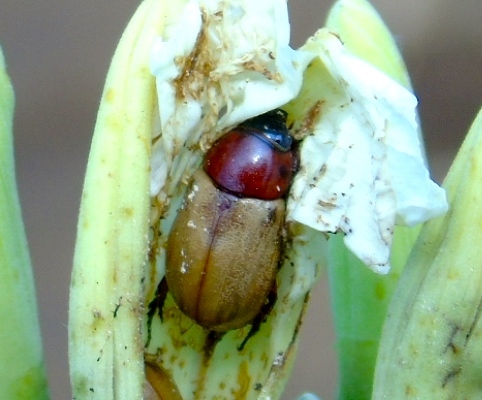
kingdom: Animalia
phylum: Arthropoda
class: Insecta
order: Coleoptera
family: Scarabaeidae
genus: Cyclocephala
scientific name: Cyclocephala melanocephala
